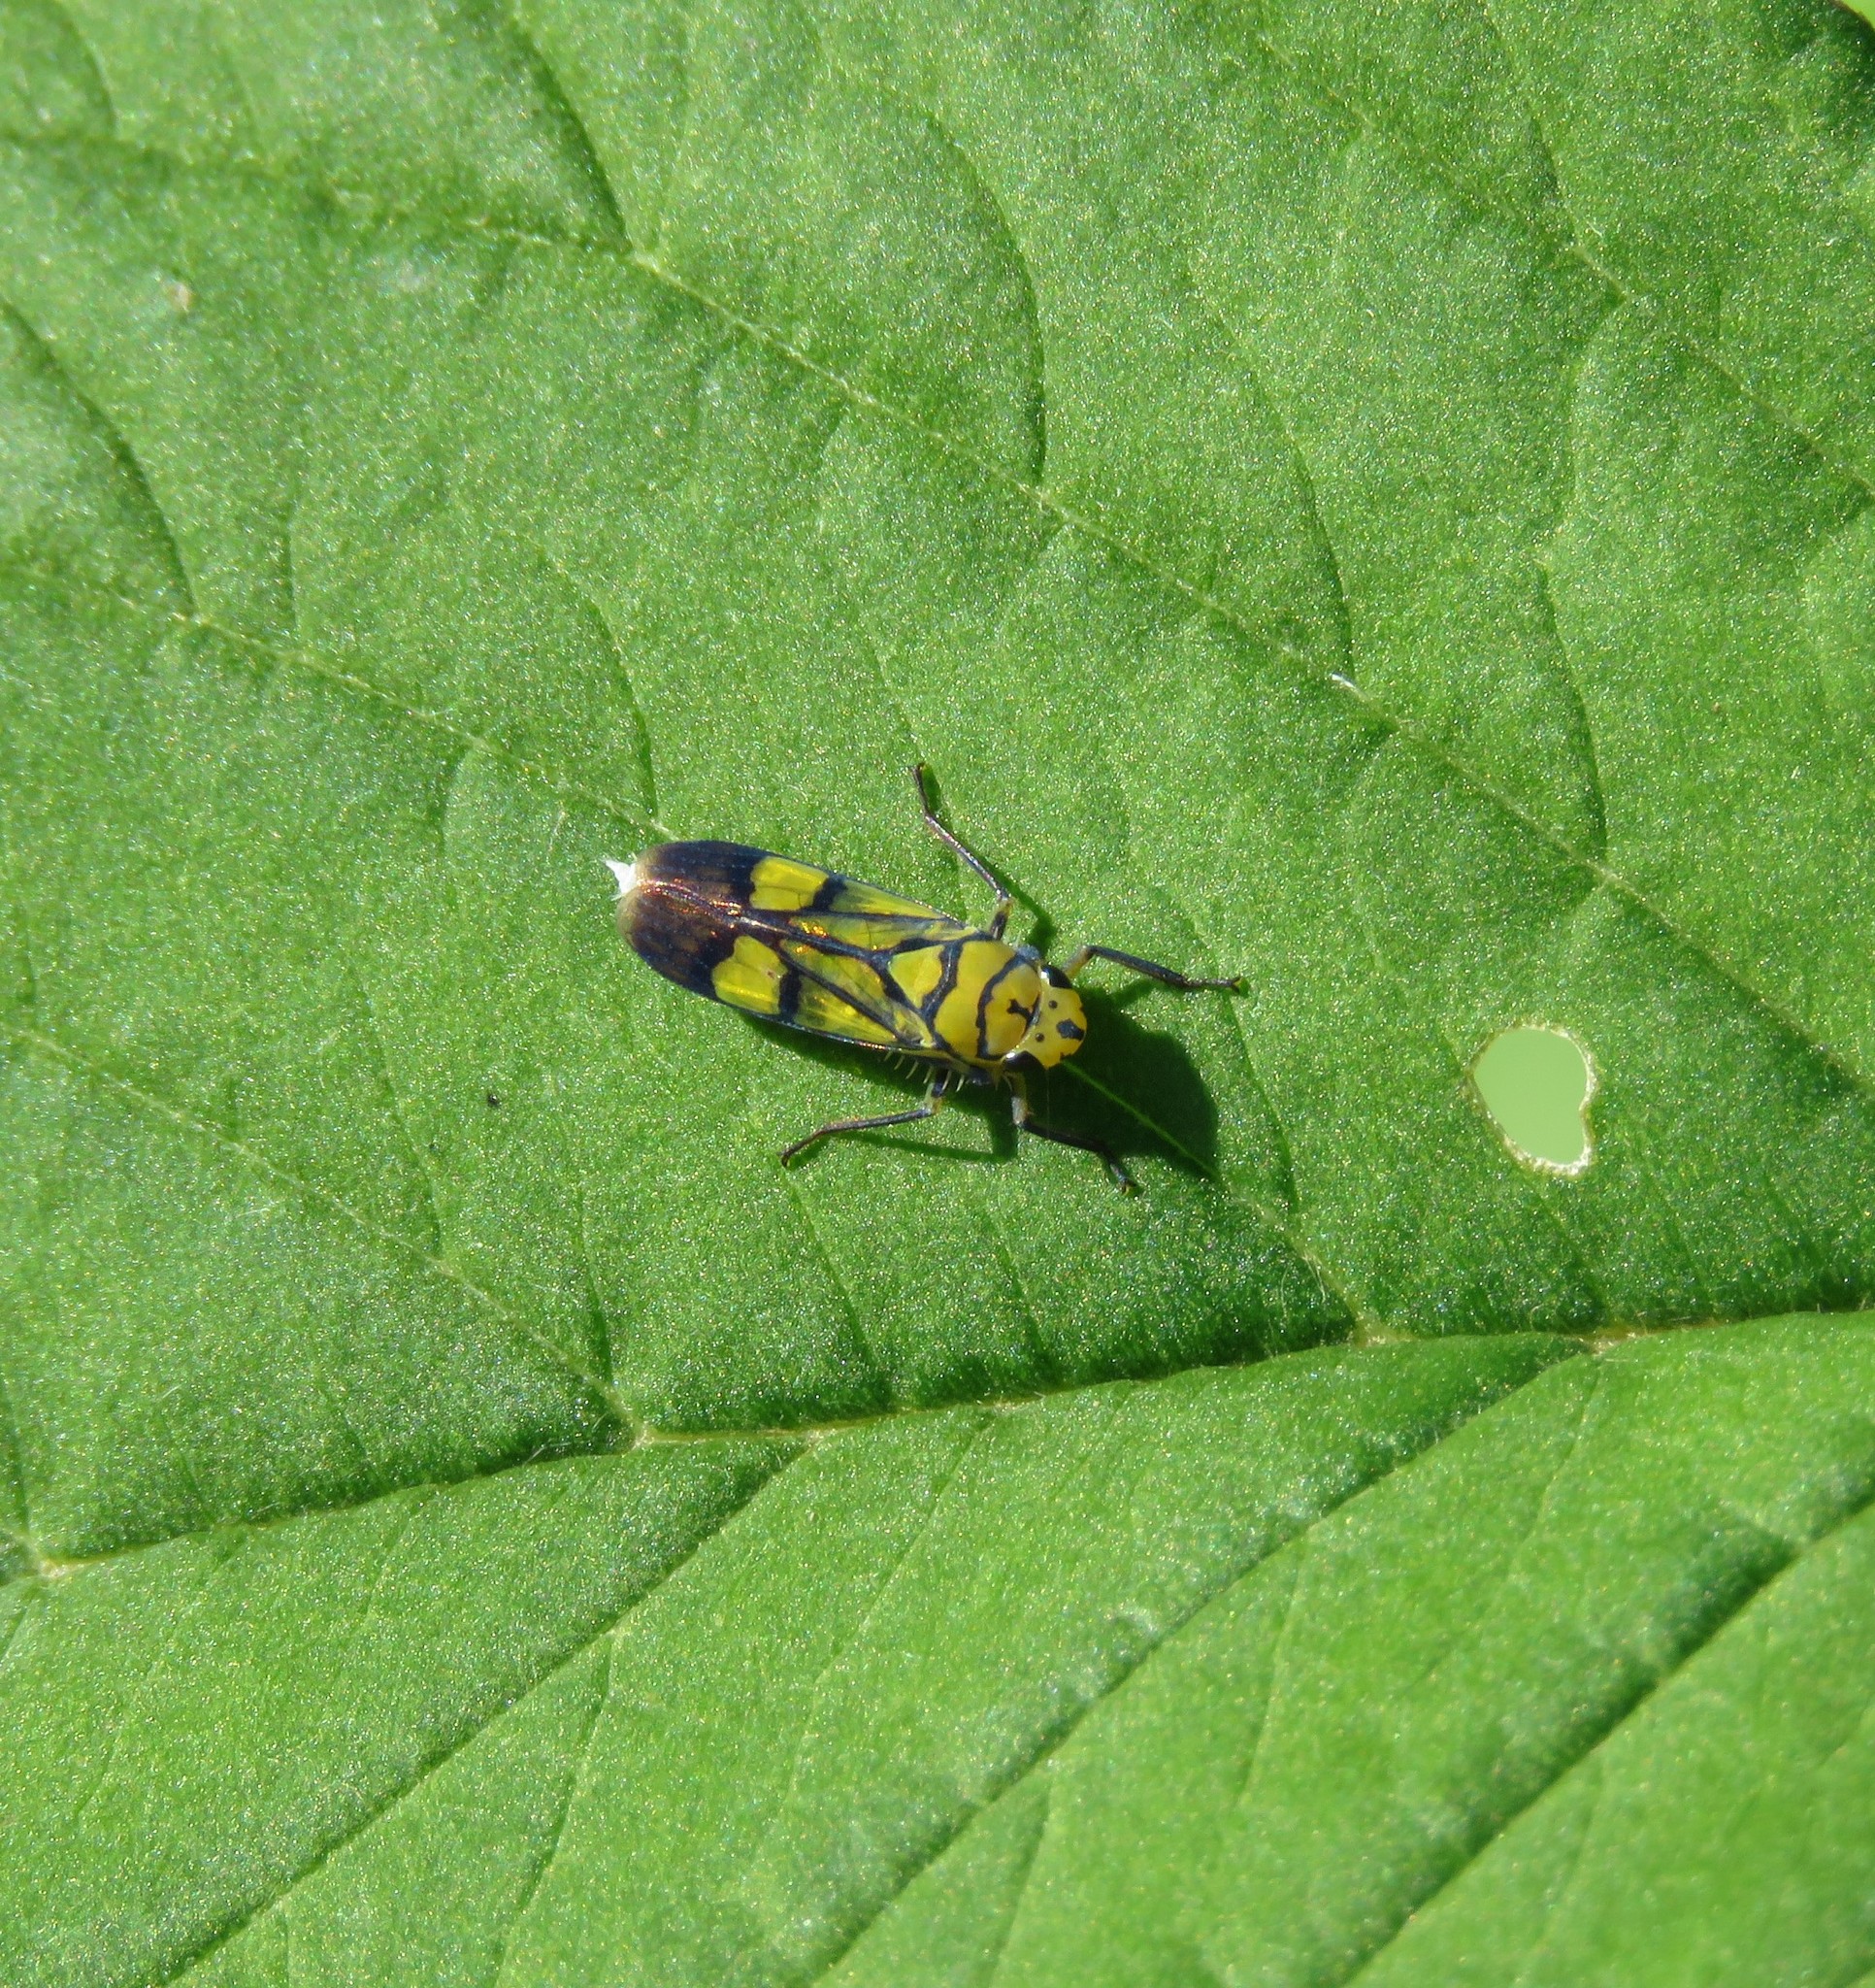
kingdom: Animalia
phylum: Arthropoda
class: Insecta
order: Hemiptera
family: Cicadellidae
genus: Parathona
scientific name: Parathona cayennensis
